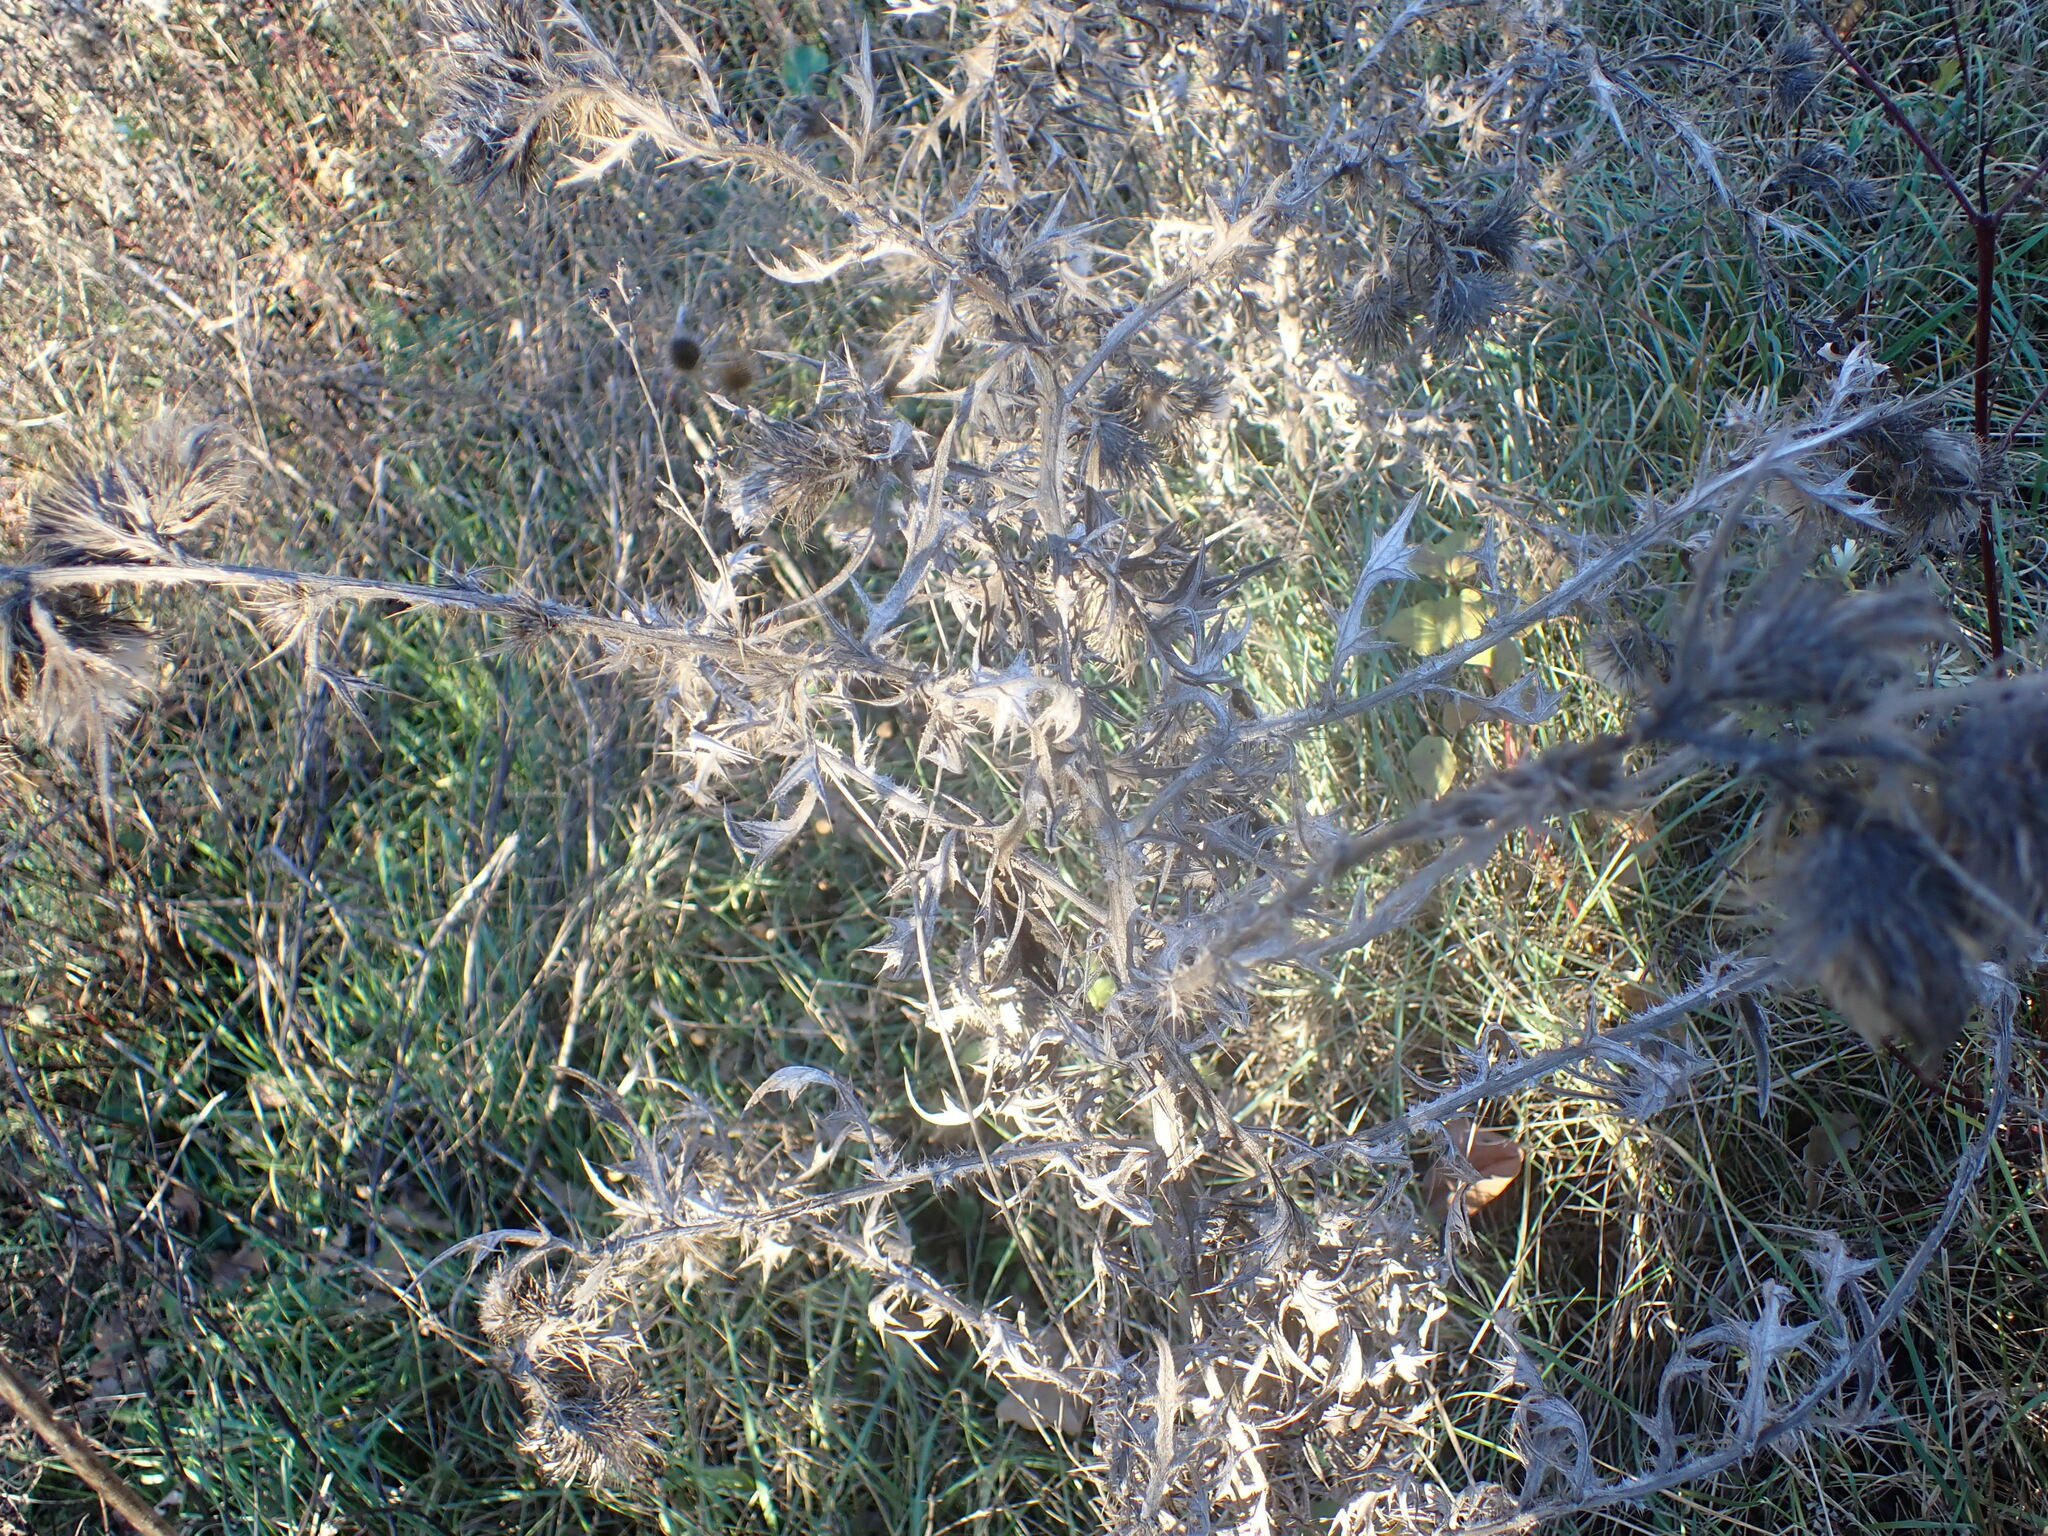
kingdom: Plantae
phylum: Tracheophyta
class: Magnoliopsida
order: Dipsacales
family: Caprifoliaceae
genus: Dipsacus
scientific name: Dipsacus fullonum
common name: Teasel
